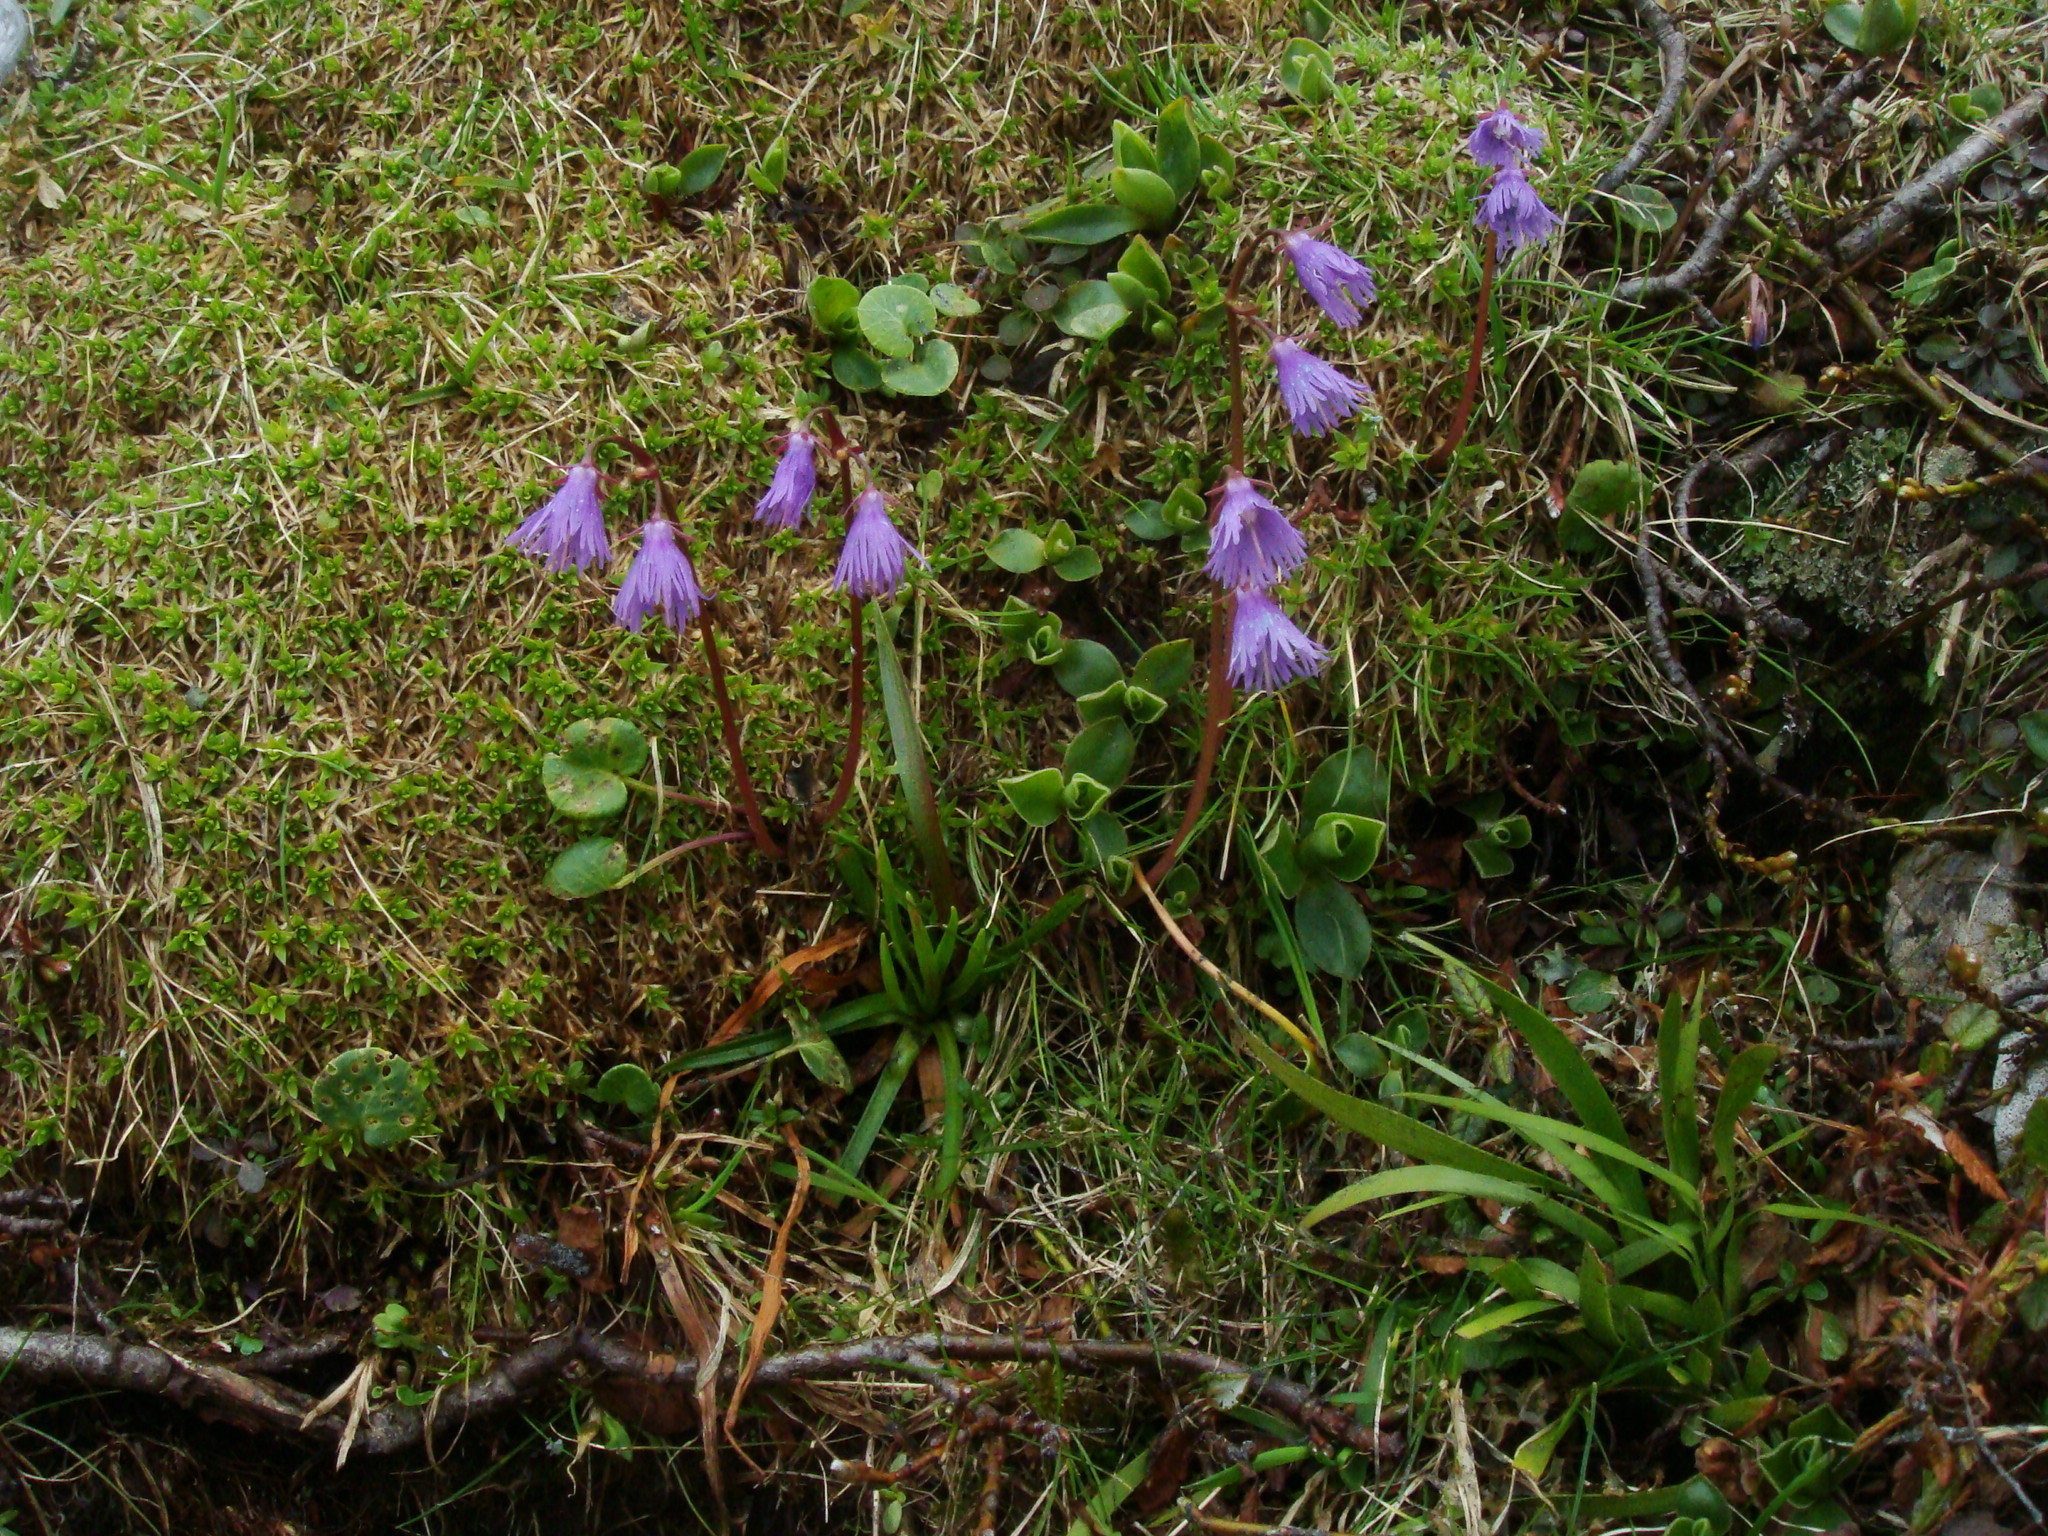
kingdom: Plantae
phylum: Tracheophyta
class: Magnoliopsida
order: Ericales
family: Primulaceae
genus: Soldanella
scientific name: Soldanella alpina
